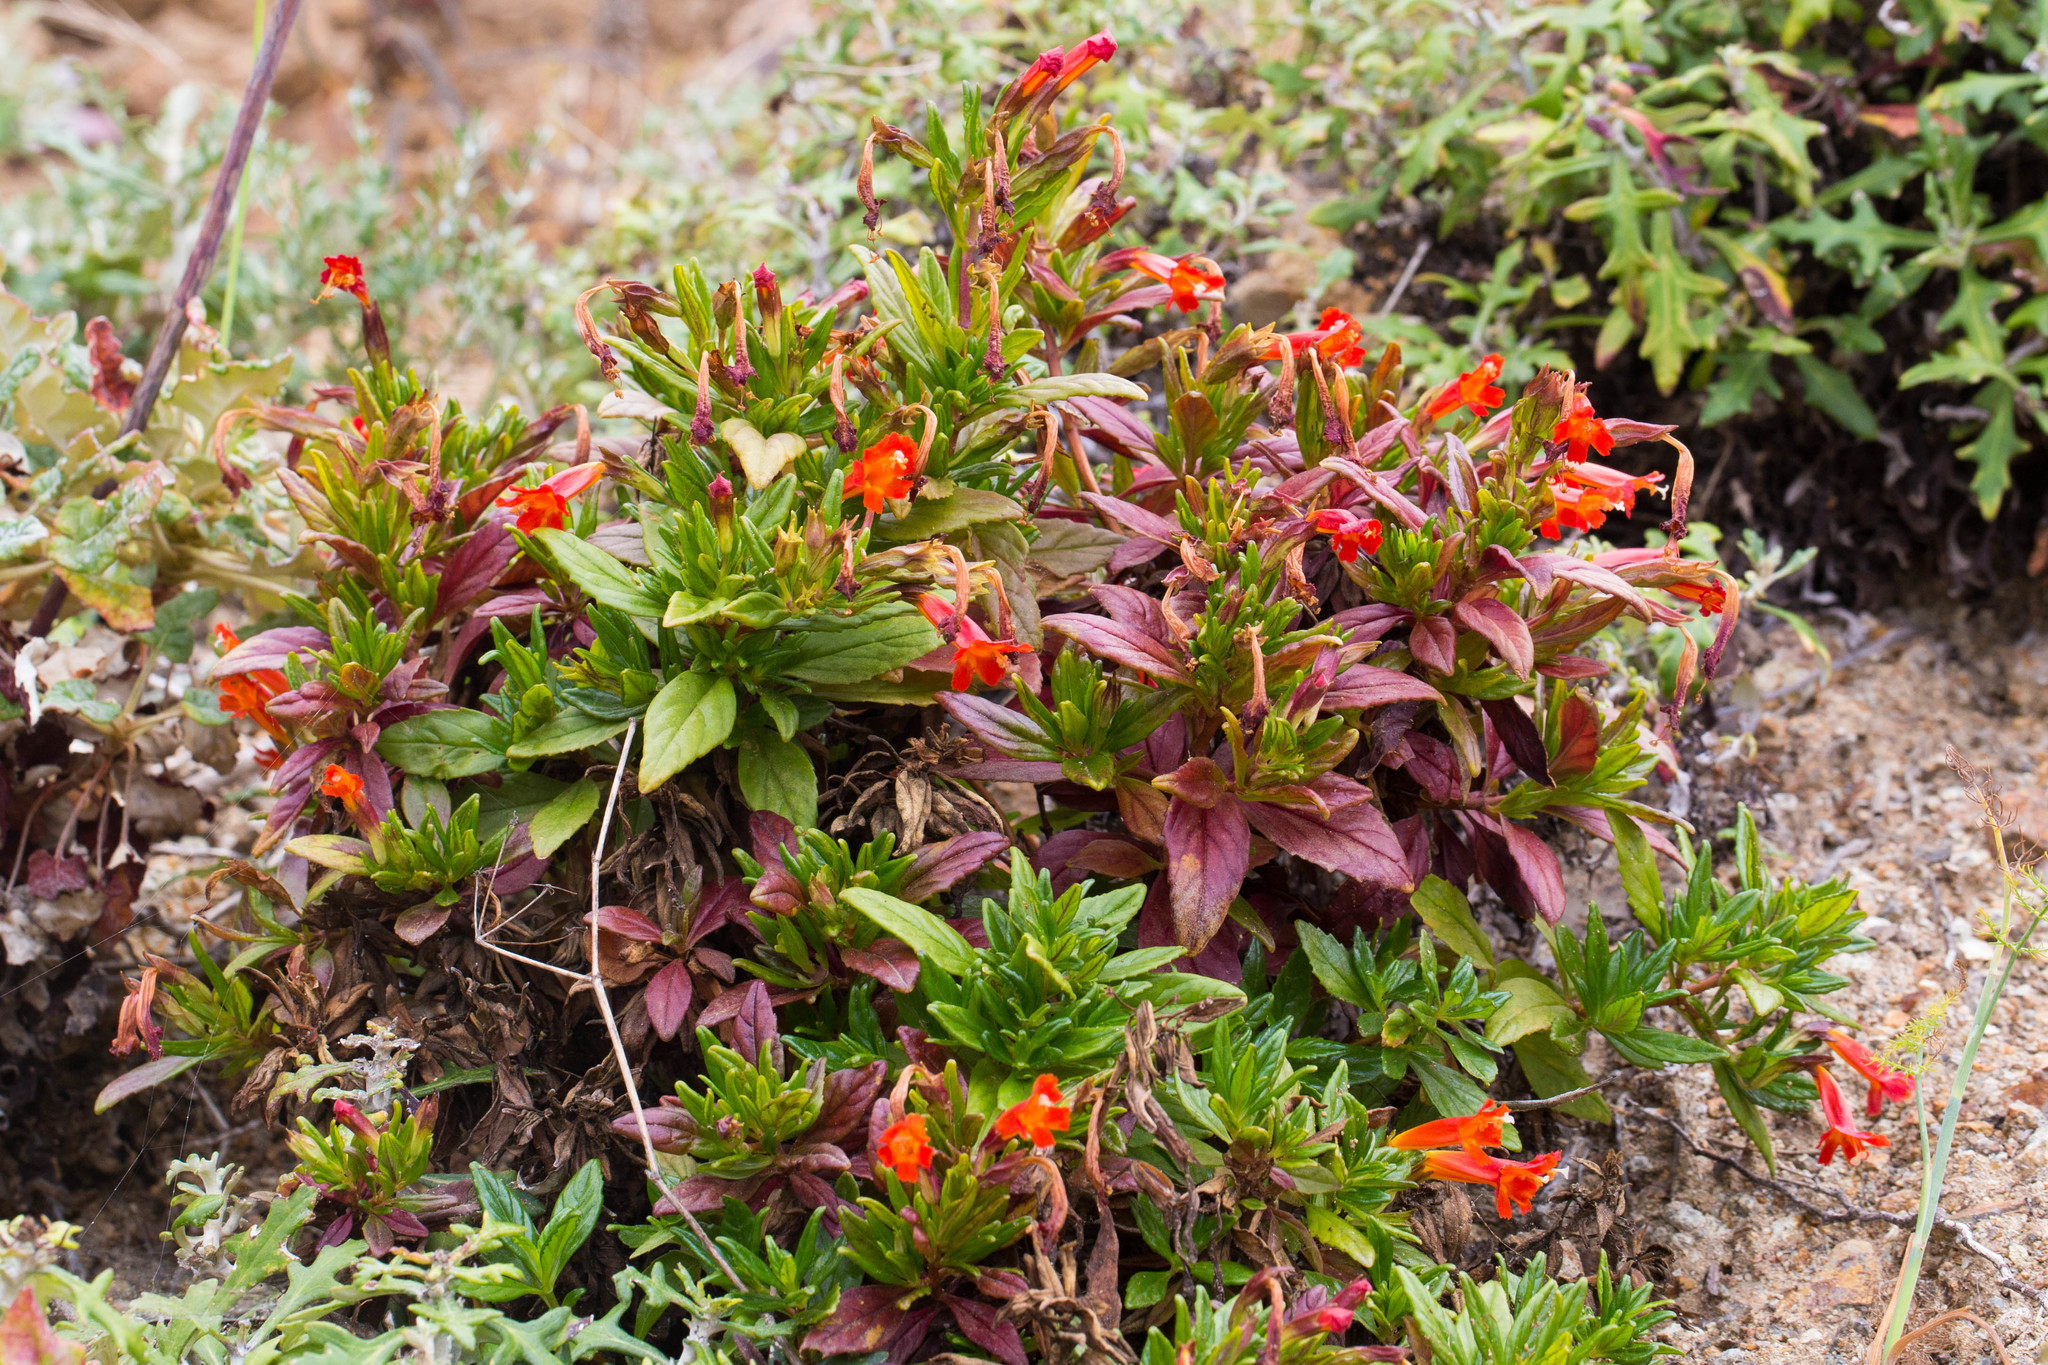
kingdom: Plantae
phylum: Tracheophyta
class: Magnoliopsida
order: Lamiales
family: Phrymaceae
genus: Diplacus
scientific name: Diplacus parviflorus
